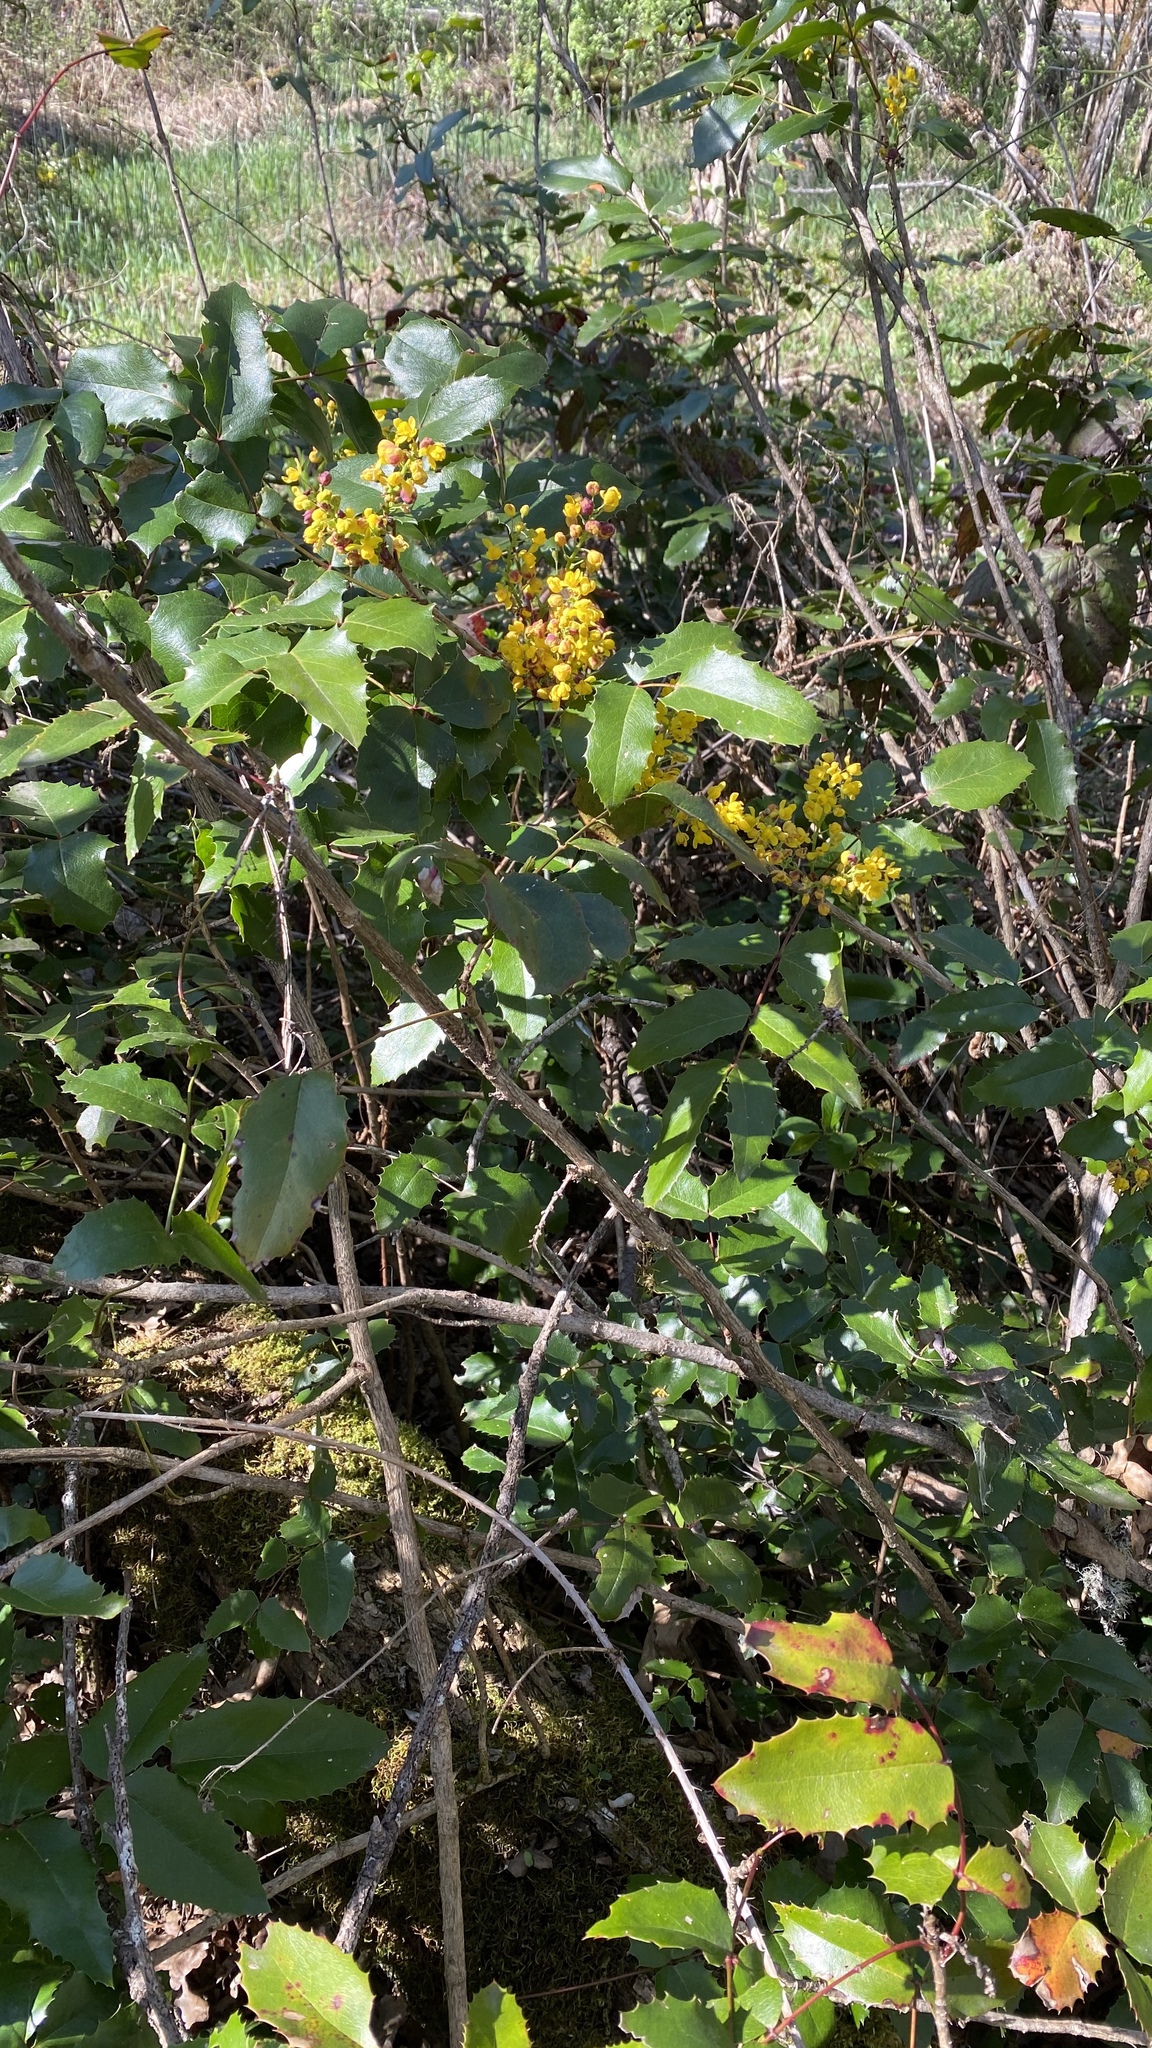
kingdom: Plantae
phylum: Tracheophyta
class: Magnoliopsida
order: Ranunculales
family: Berberidaceae
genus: Mahonia
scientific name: Mahonia aquifolium
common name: Oregon-grape
